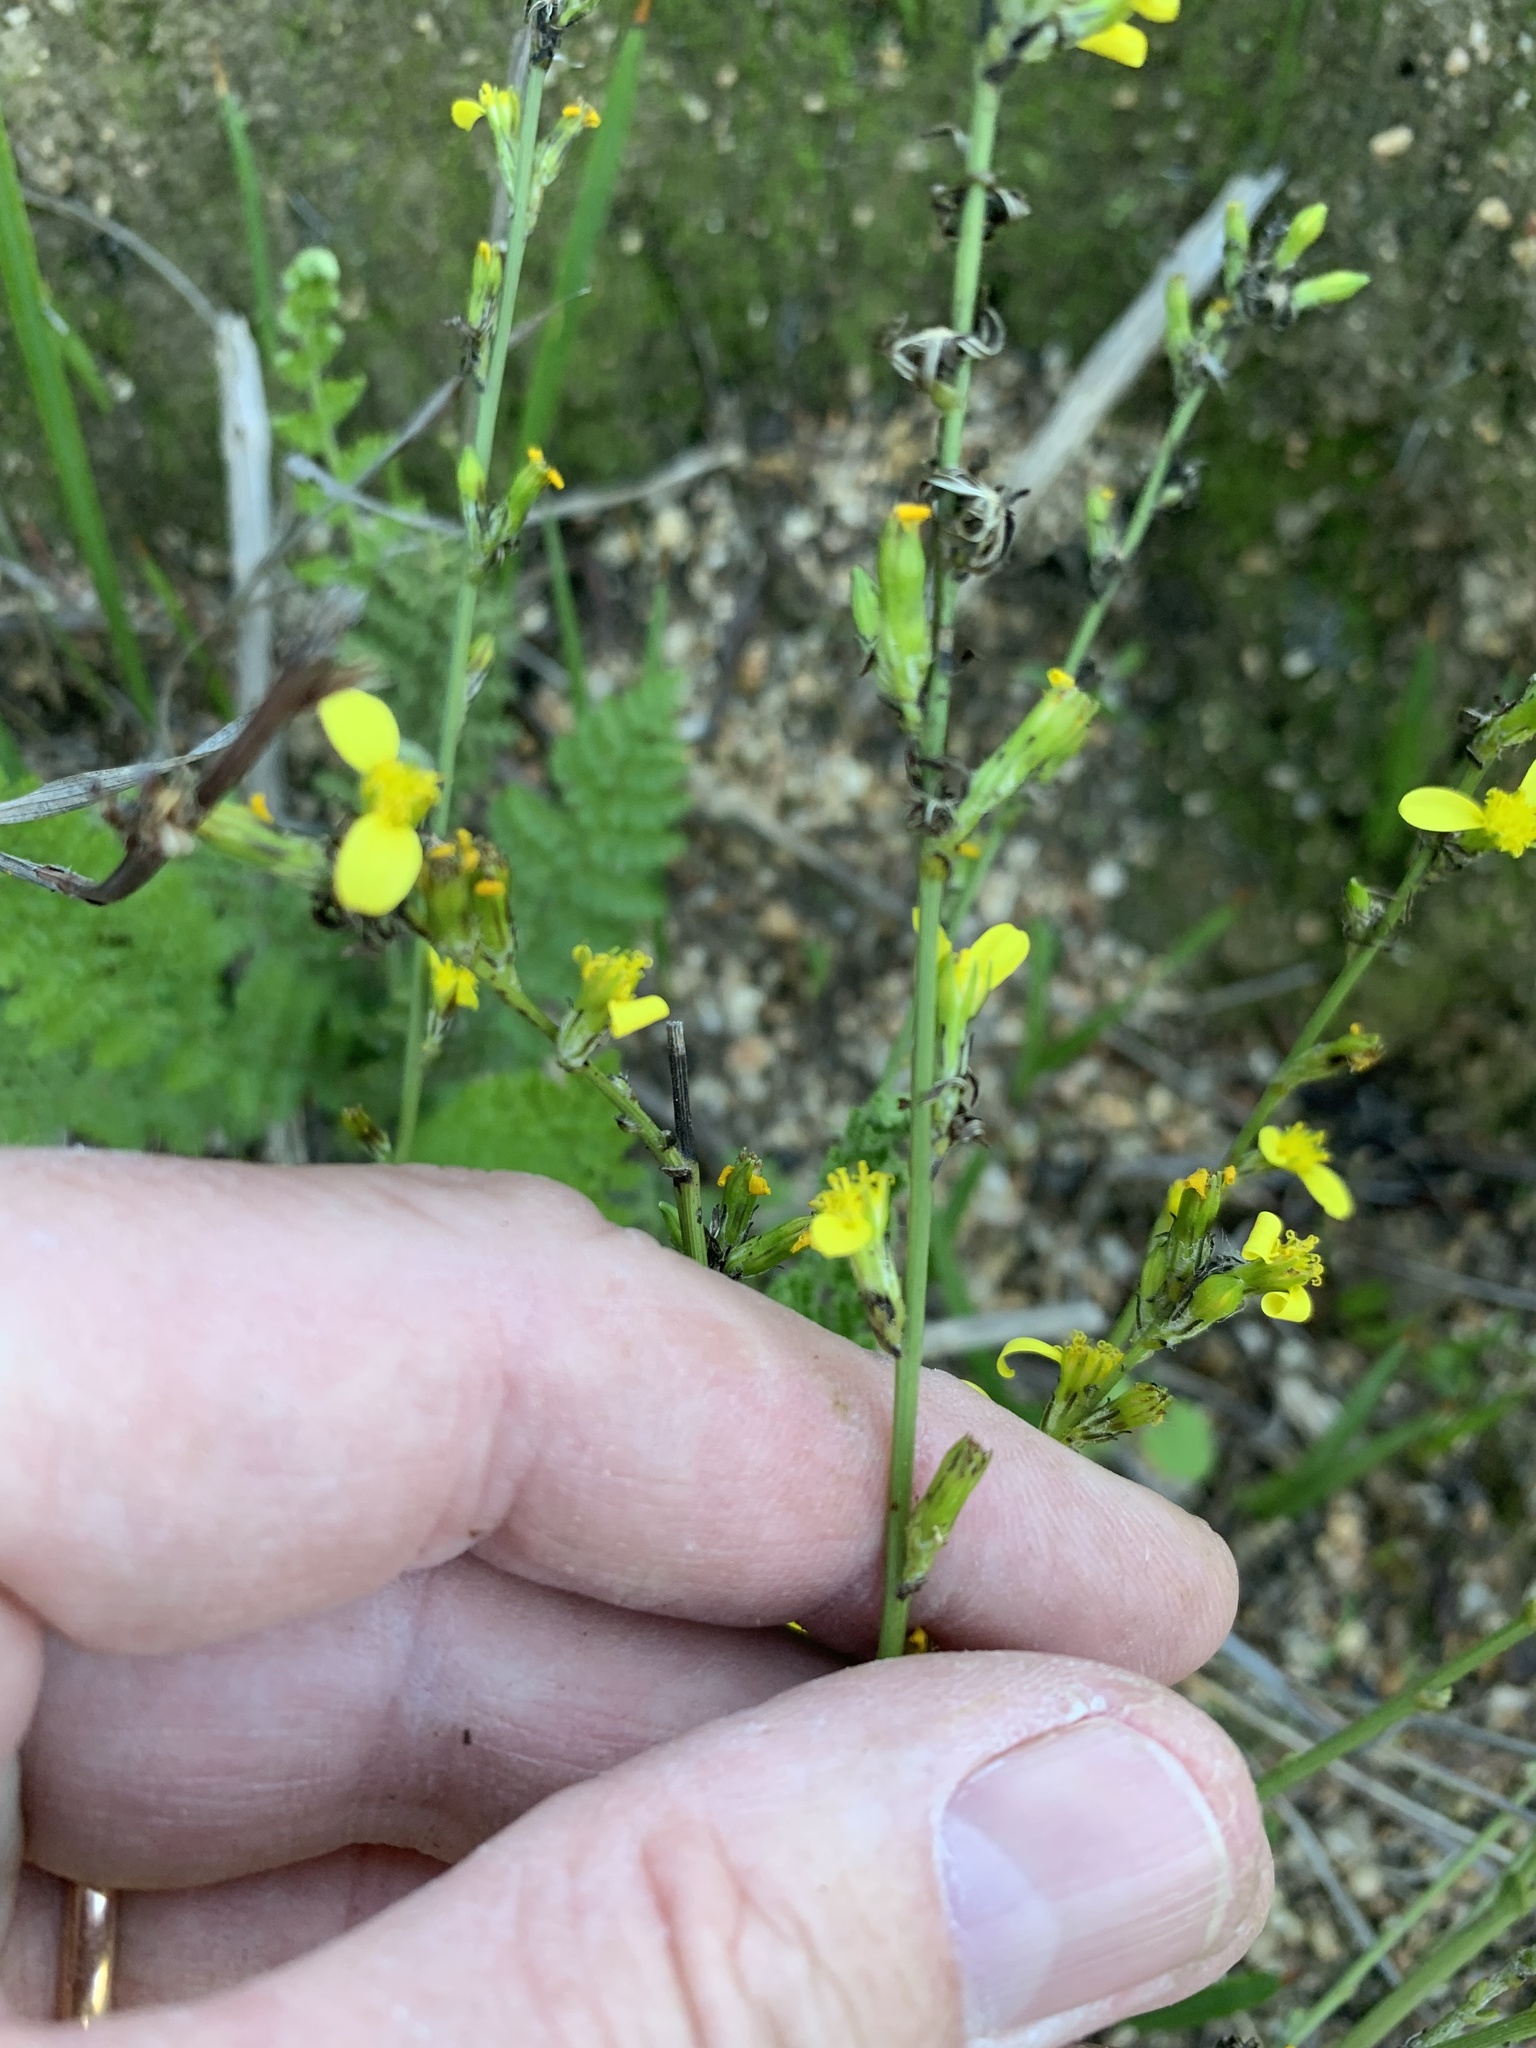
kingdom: Plantae
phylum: Tracheophyta
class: Magnoliopsida
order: Asterales
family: Asteraceae
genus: Senecio
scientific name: Senecio pubigerus
